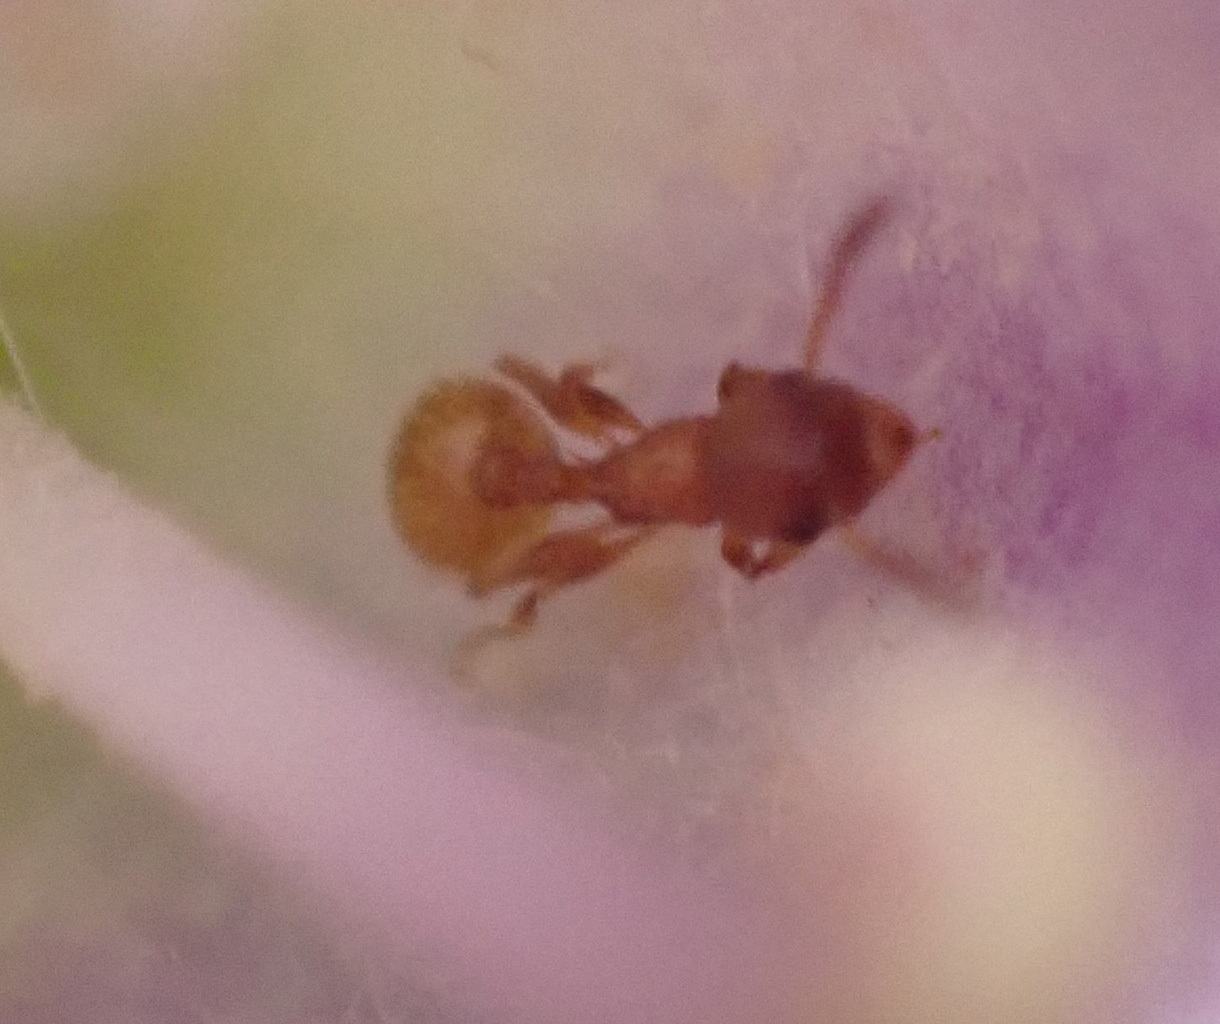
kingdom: Animalia
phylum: Arthropoda
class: Insecta
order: Hymenoptera
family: Formicidae
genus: Leptothorax
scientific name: Leptothorax affinis
